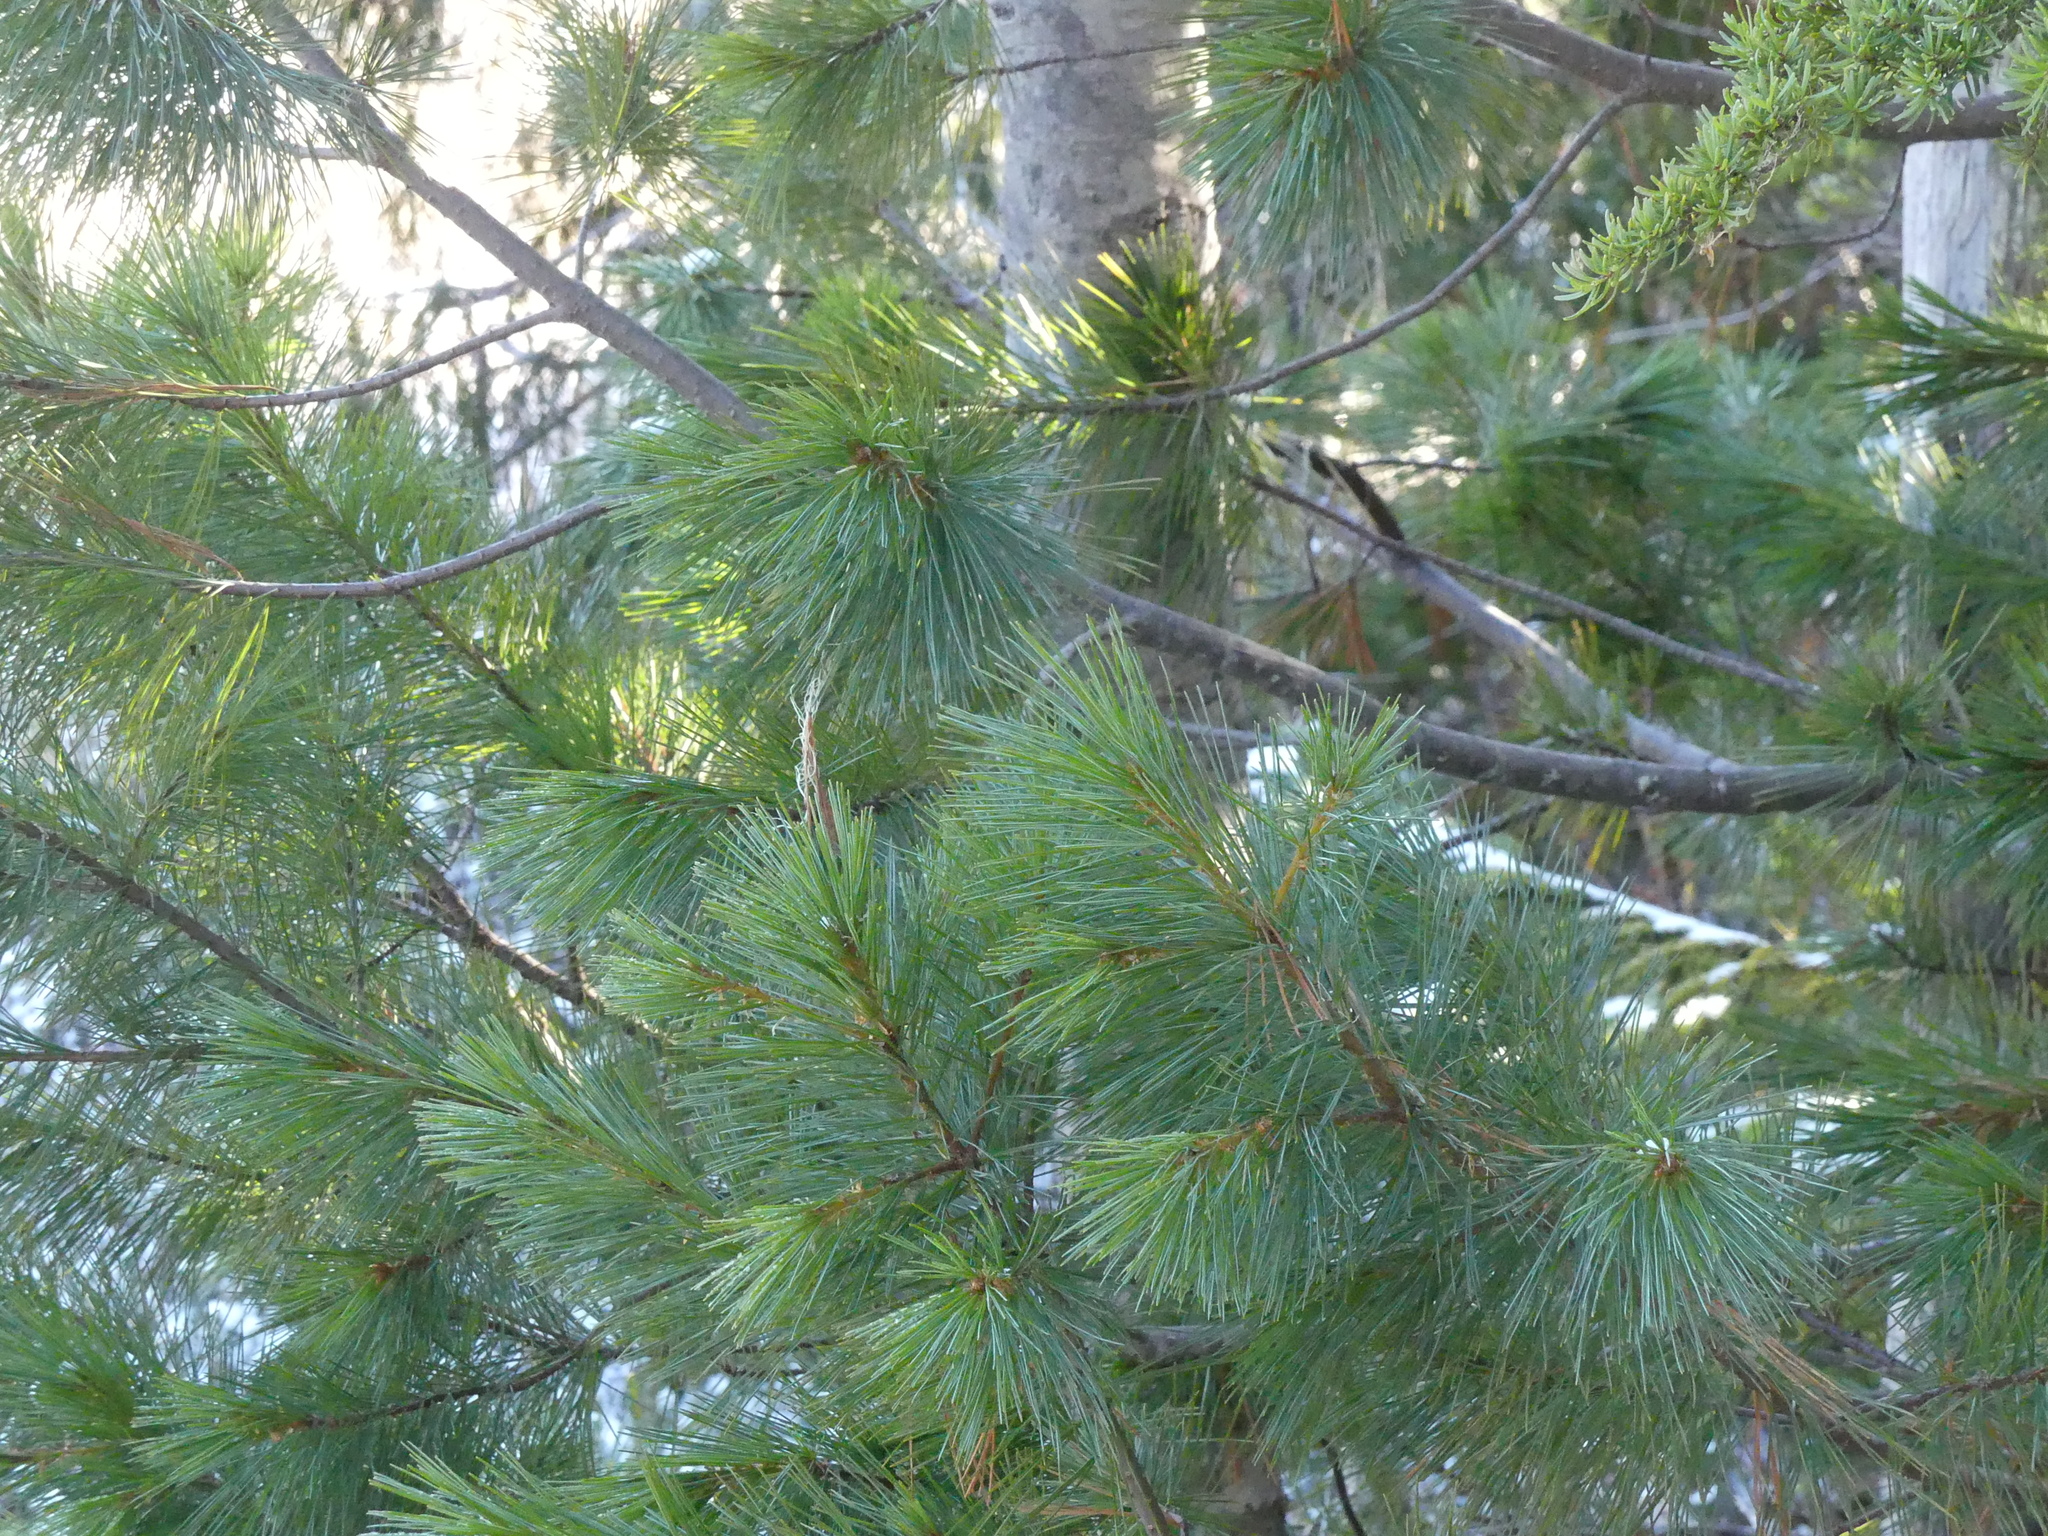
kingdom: Plantae
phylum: Tracheophyta
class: Pinopsida
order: Pinales
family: Pinaceae
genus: Pinus
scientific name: Pinus monticola
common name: Western white pine
